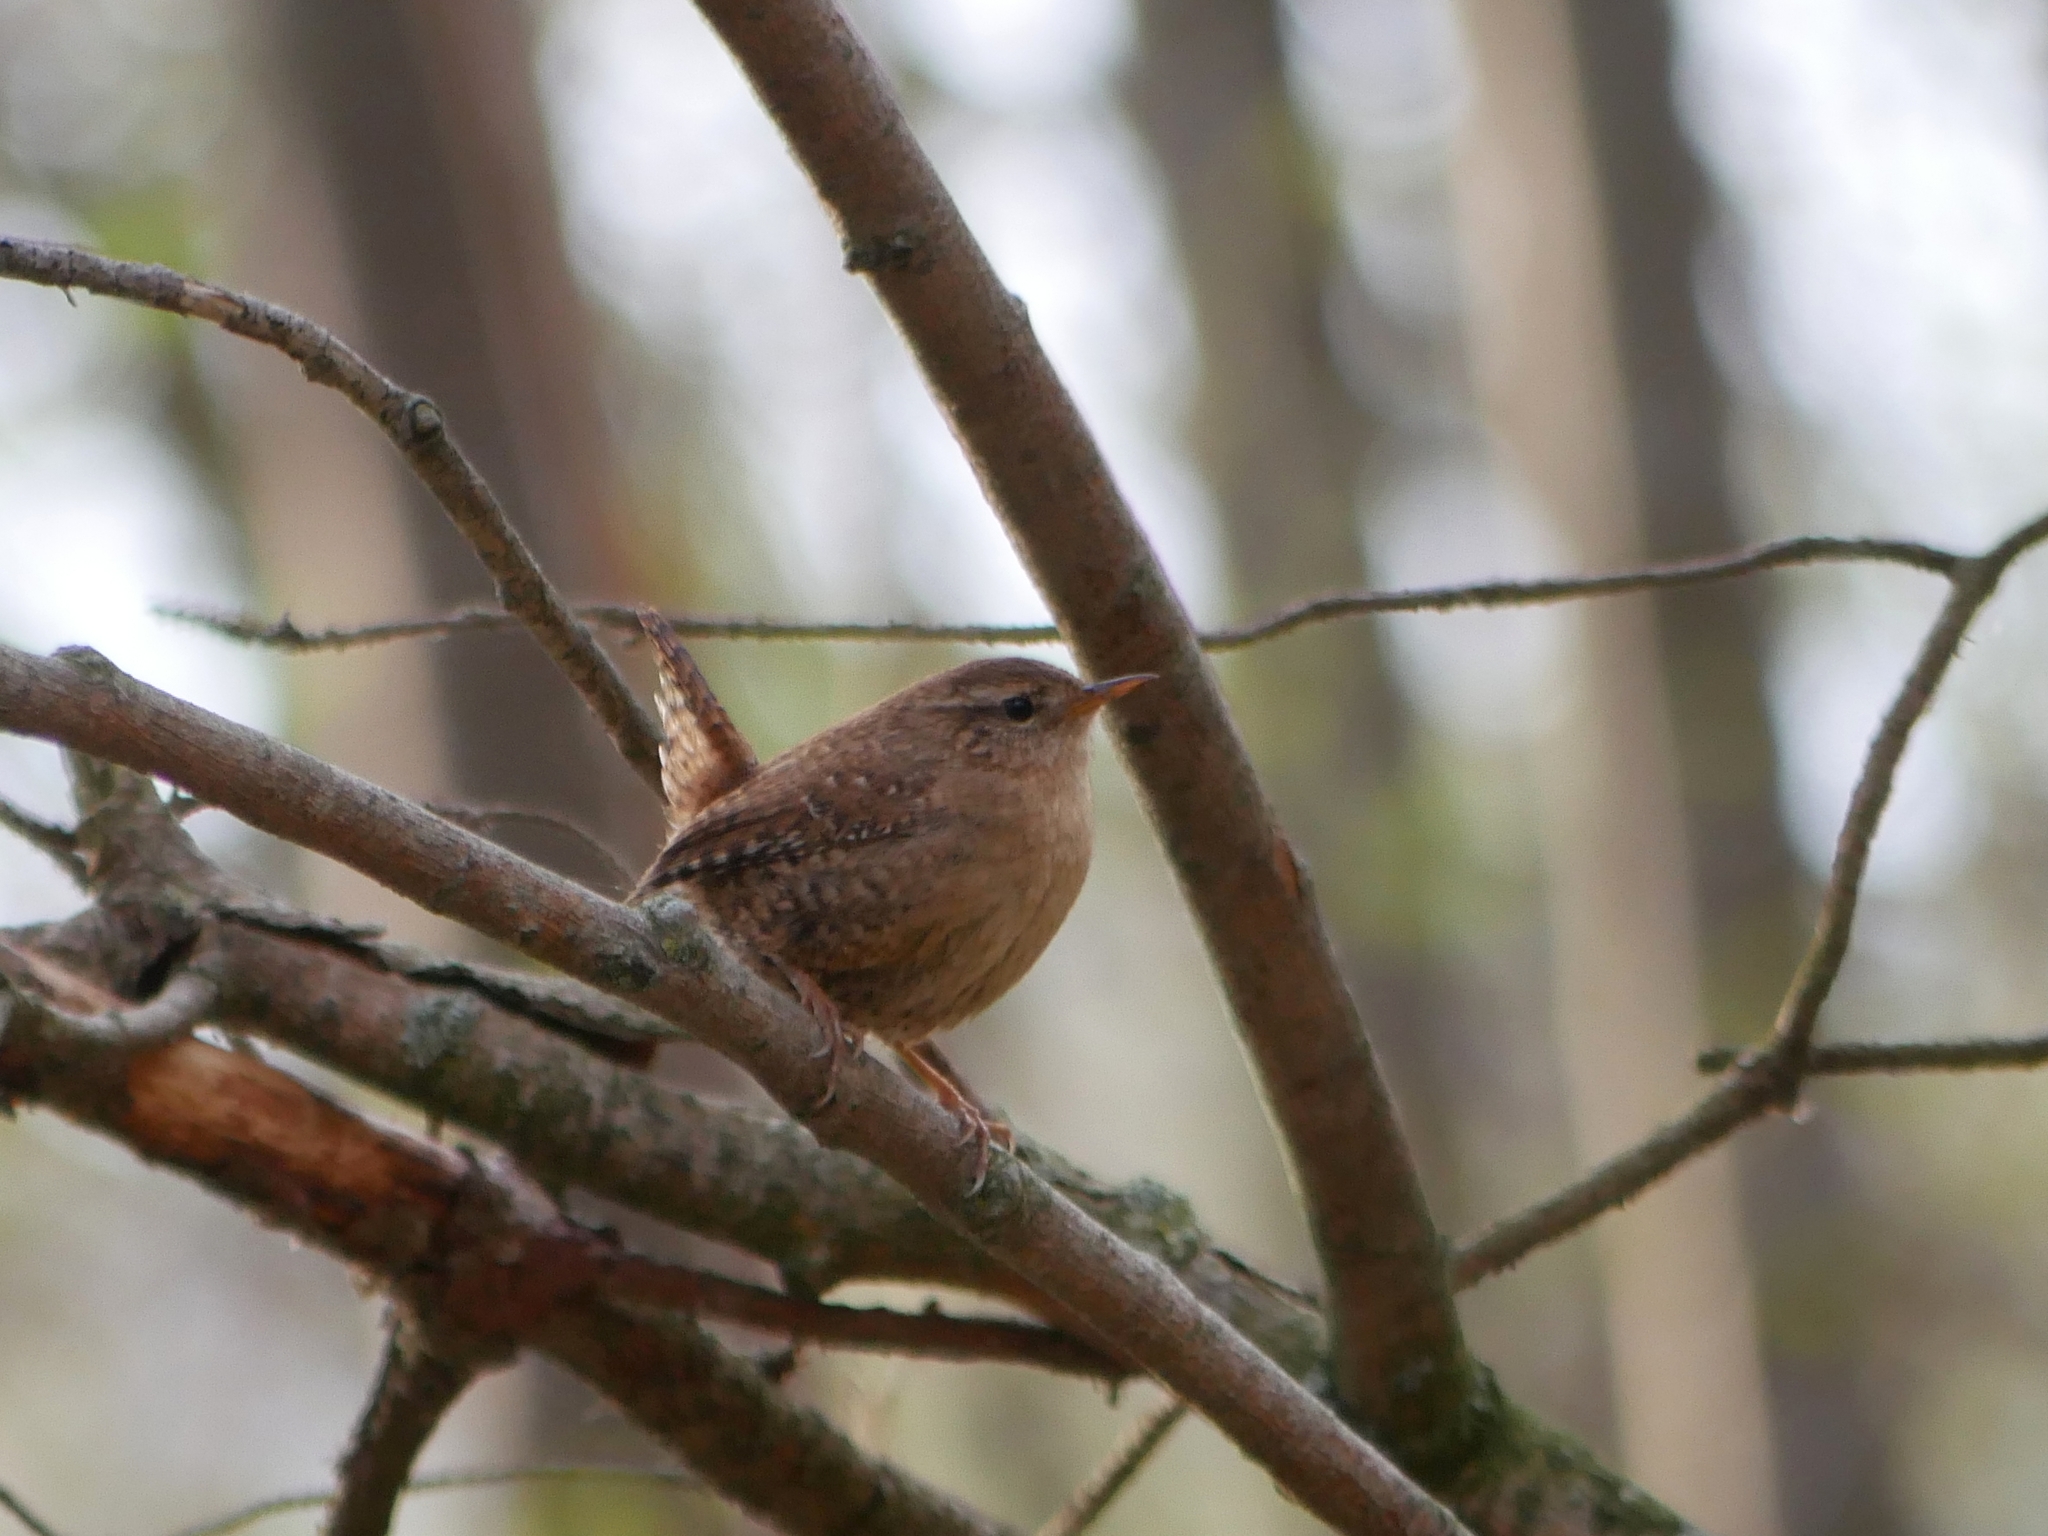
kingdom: Animalia
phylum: Chordata
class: Aves
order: Passeriformes
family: Troglodytidae
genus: Troglodytes
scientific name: Troglodytes troglodytes
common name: Eurasian wren
